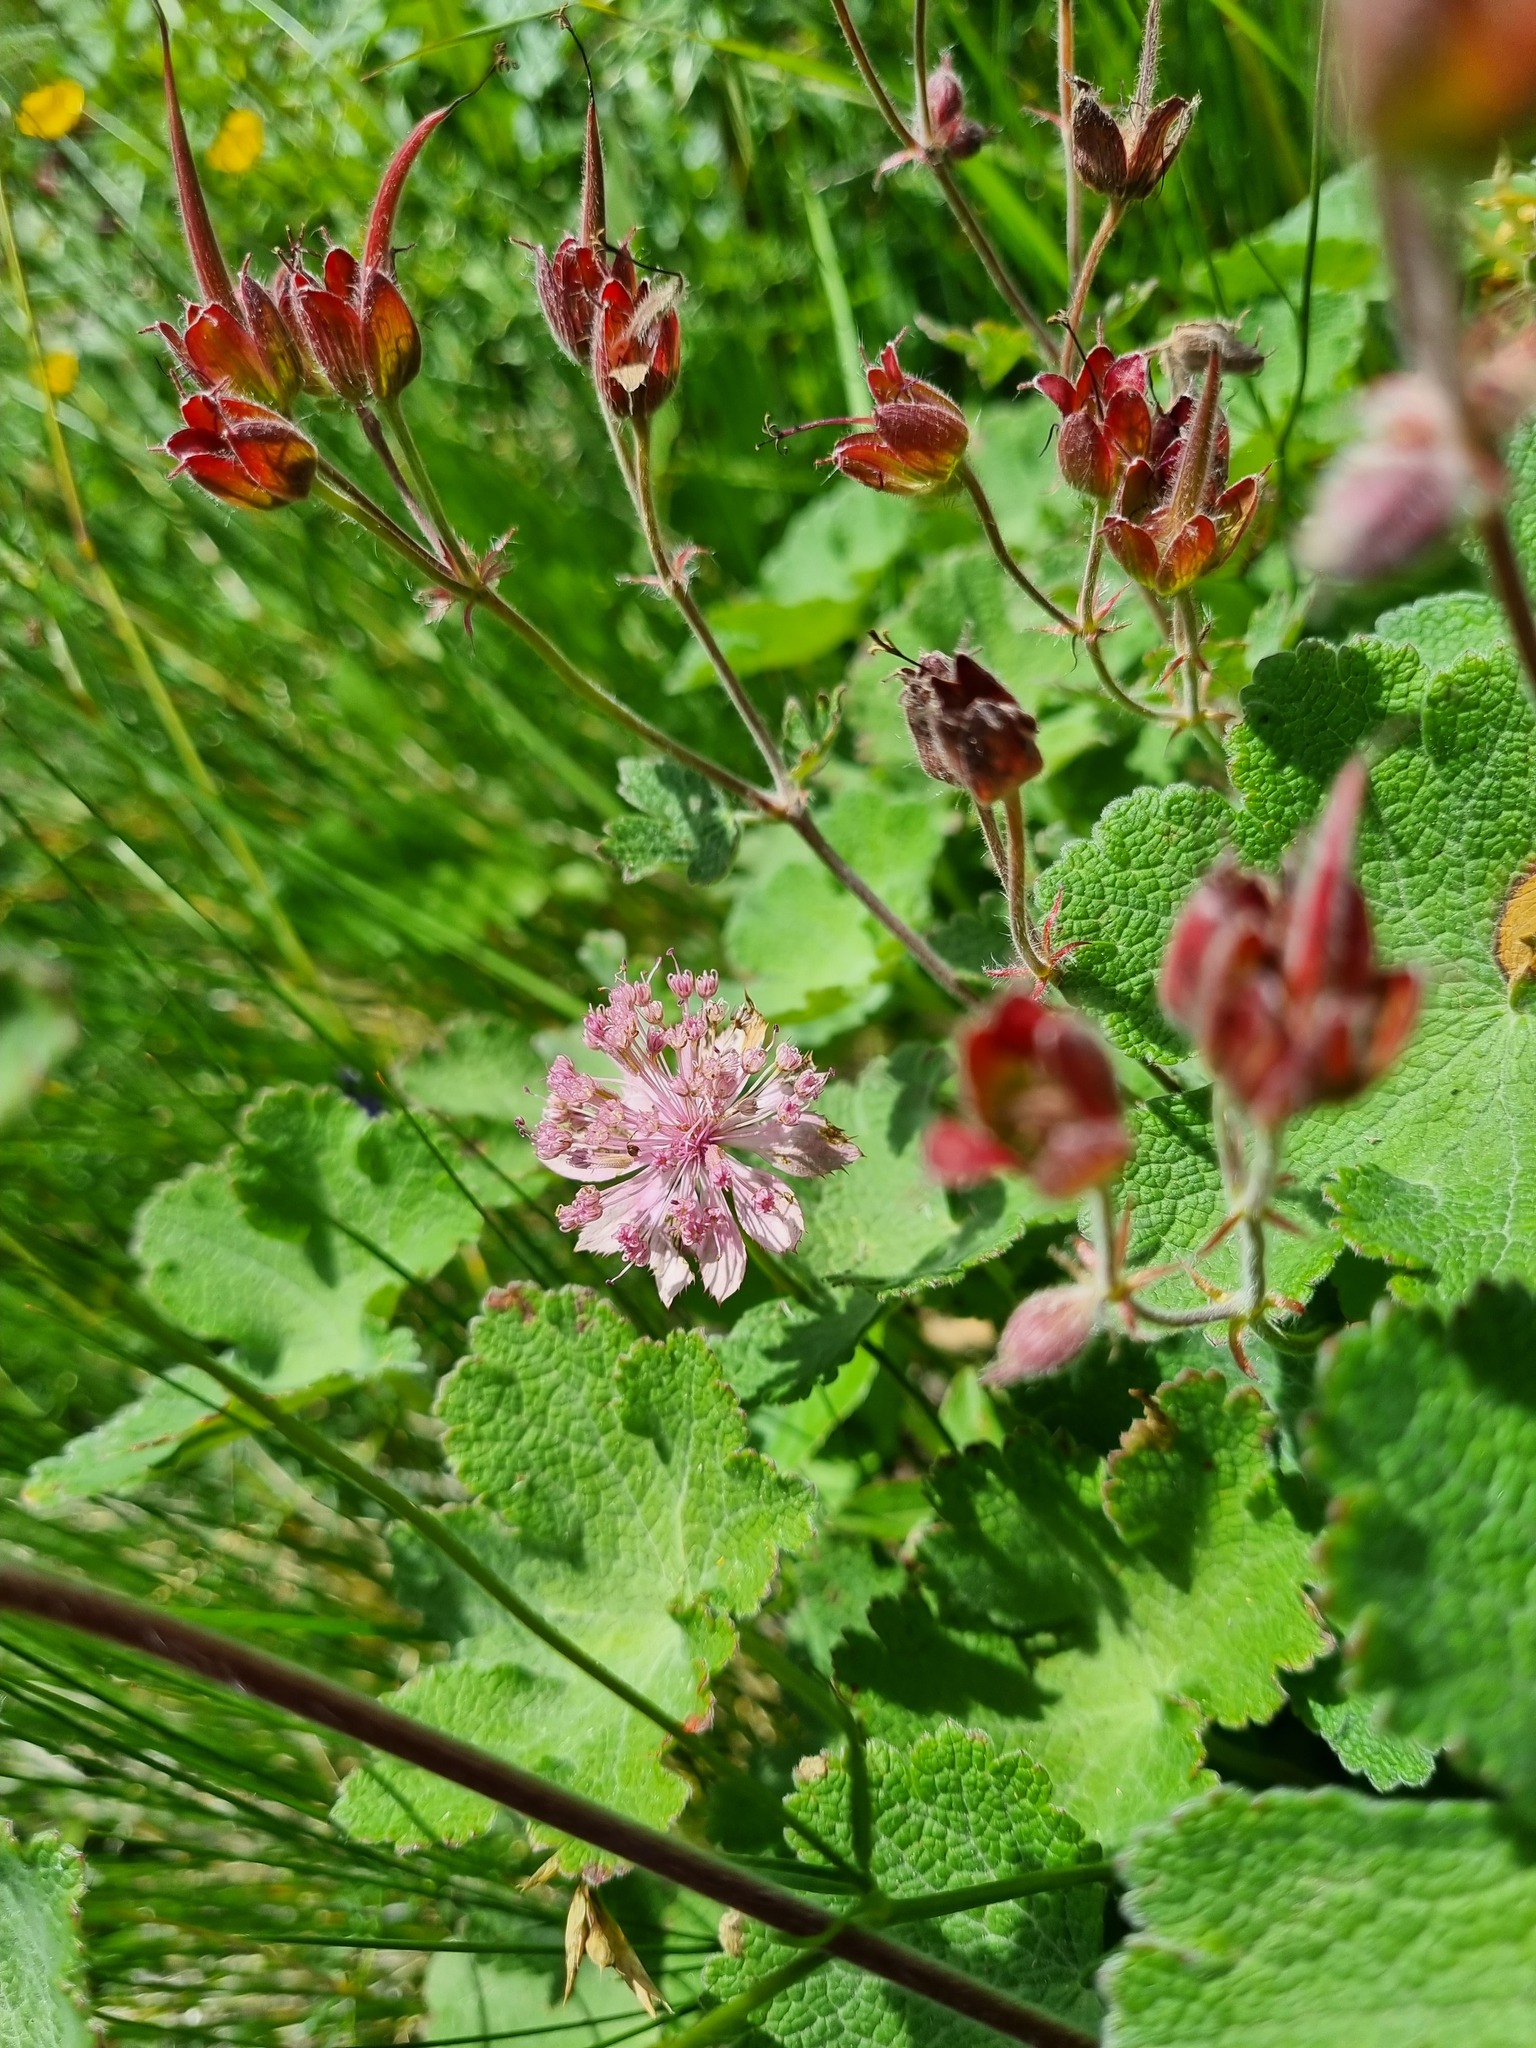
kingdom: Plantae
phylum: Tracheophyta
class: Magnoliopsida
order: Geraniales
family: Geraniaceae
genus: Geranium
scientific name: Geranium renardii
